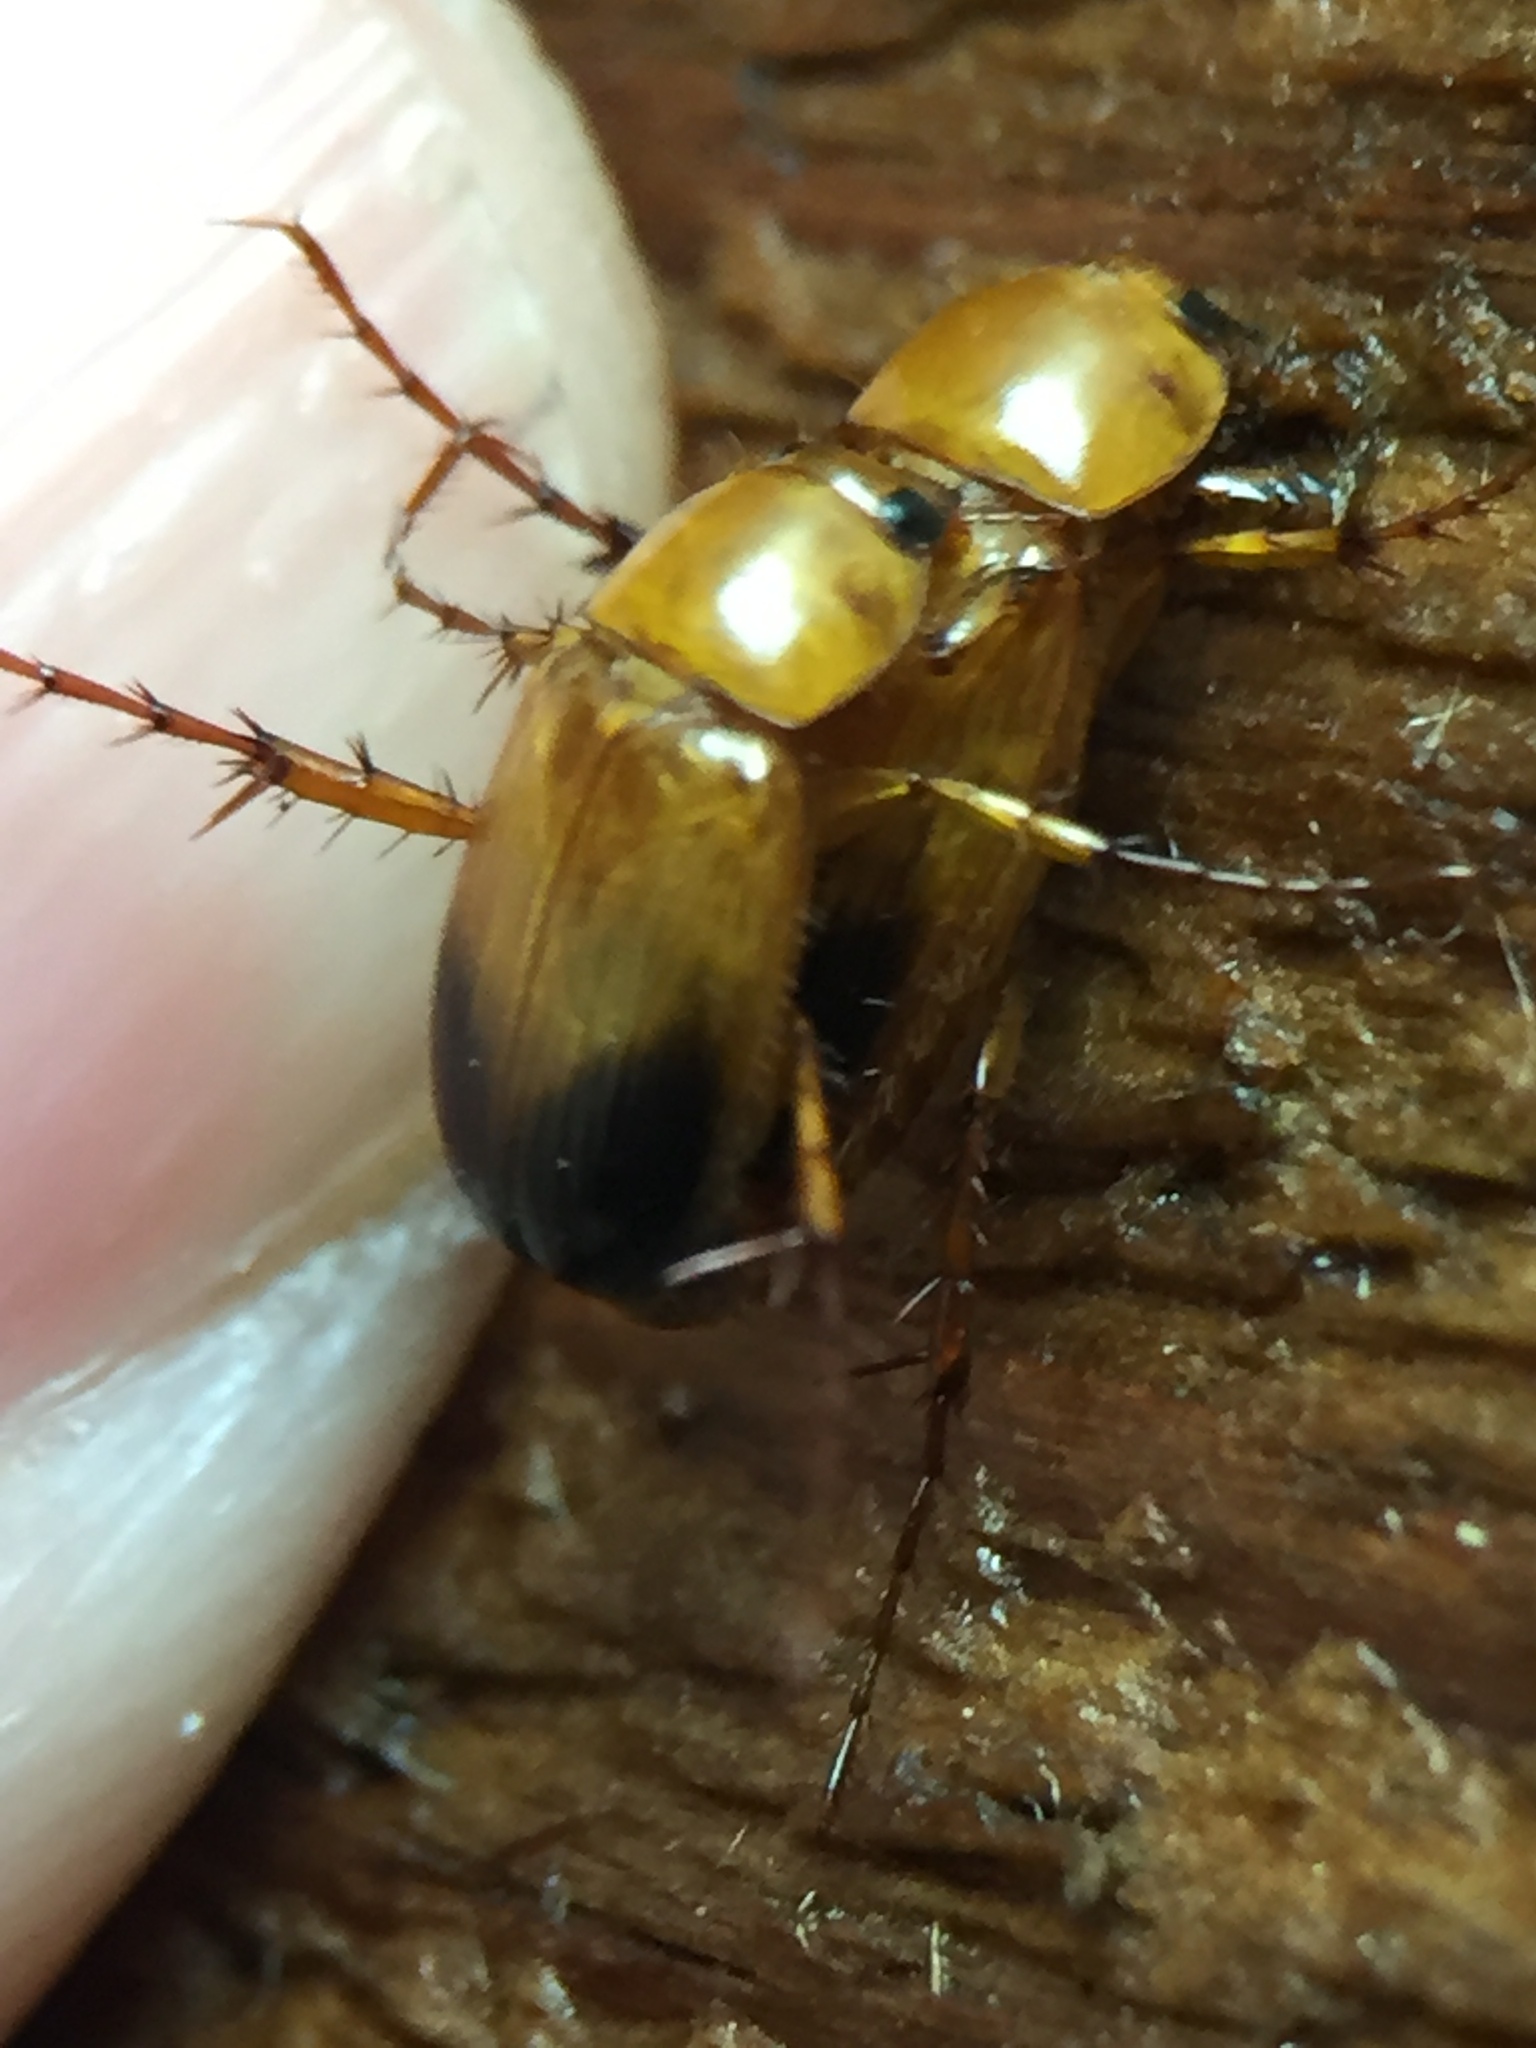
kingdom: Animalia
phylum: Arthropoda
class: Insecta
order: Coleoptera
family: Scarabaeidae
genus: Phyllotocus
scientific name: Phyllotocus macleayi
